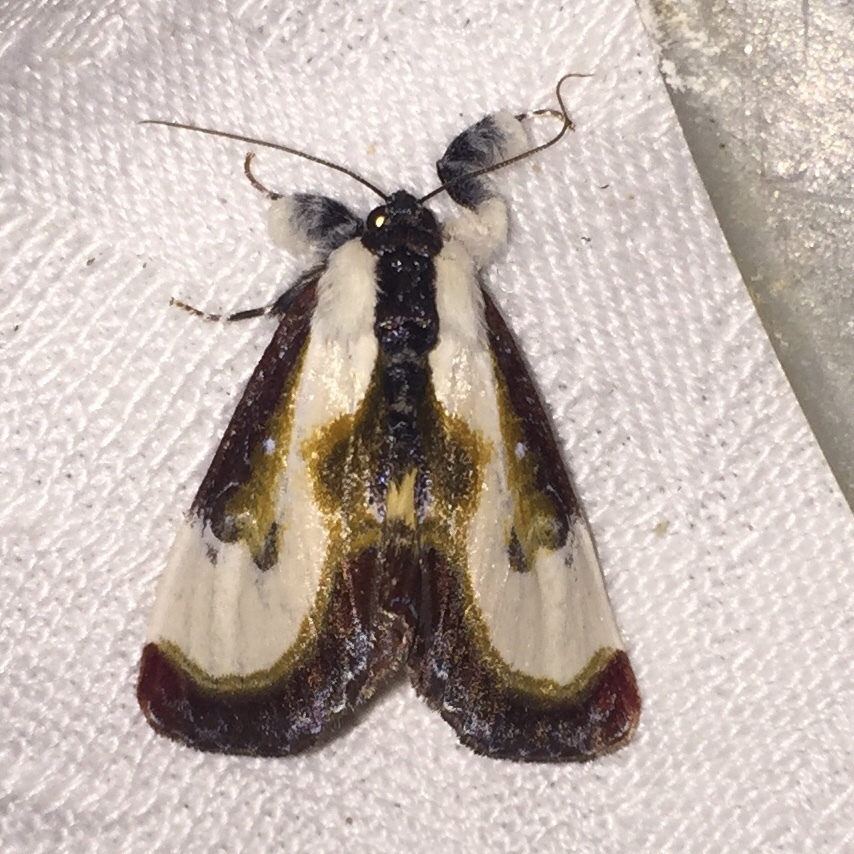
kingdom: Animalia
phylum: Arthropoda
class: Insecta
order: Lepidoptera
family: Noctuidae
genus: Eudryas
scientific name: Eudryas grata
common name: Beautiful wood-nymph
